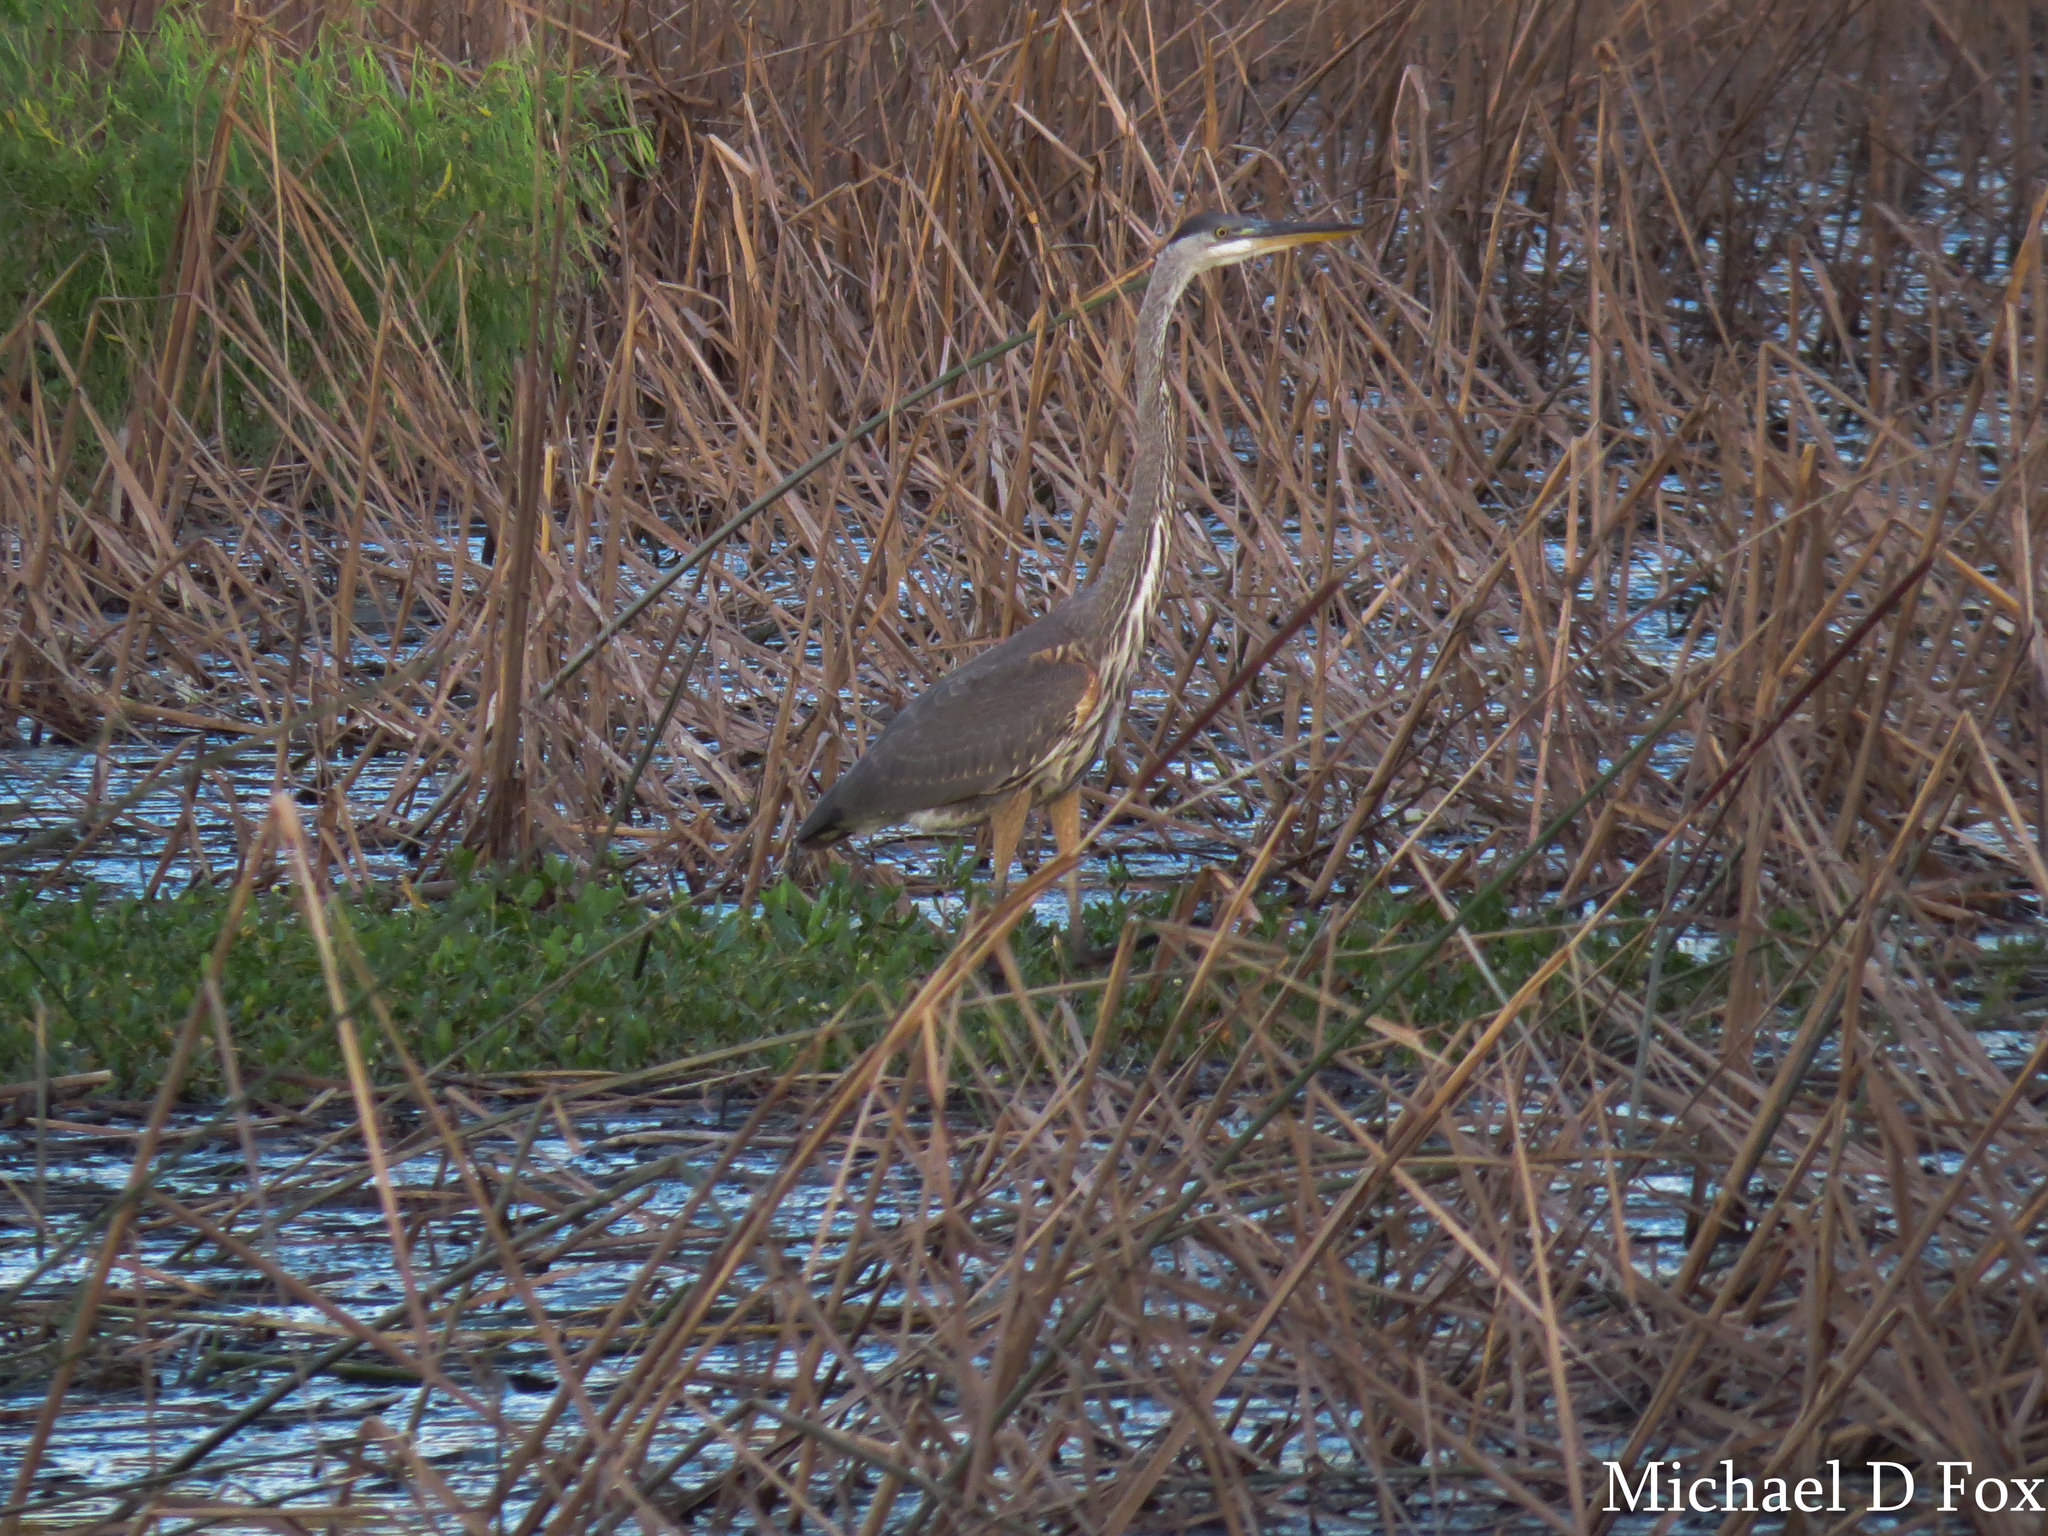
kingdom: Animalia
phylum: Chordata
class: Aves
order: Pelecaniformes
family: Ardeidae
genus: Ardea
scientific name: Ardea herodias
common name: Great blue heron
